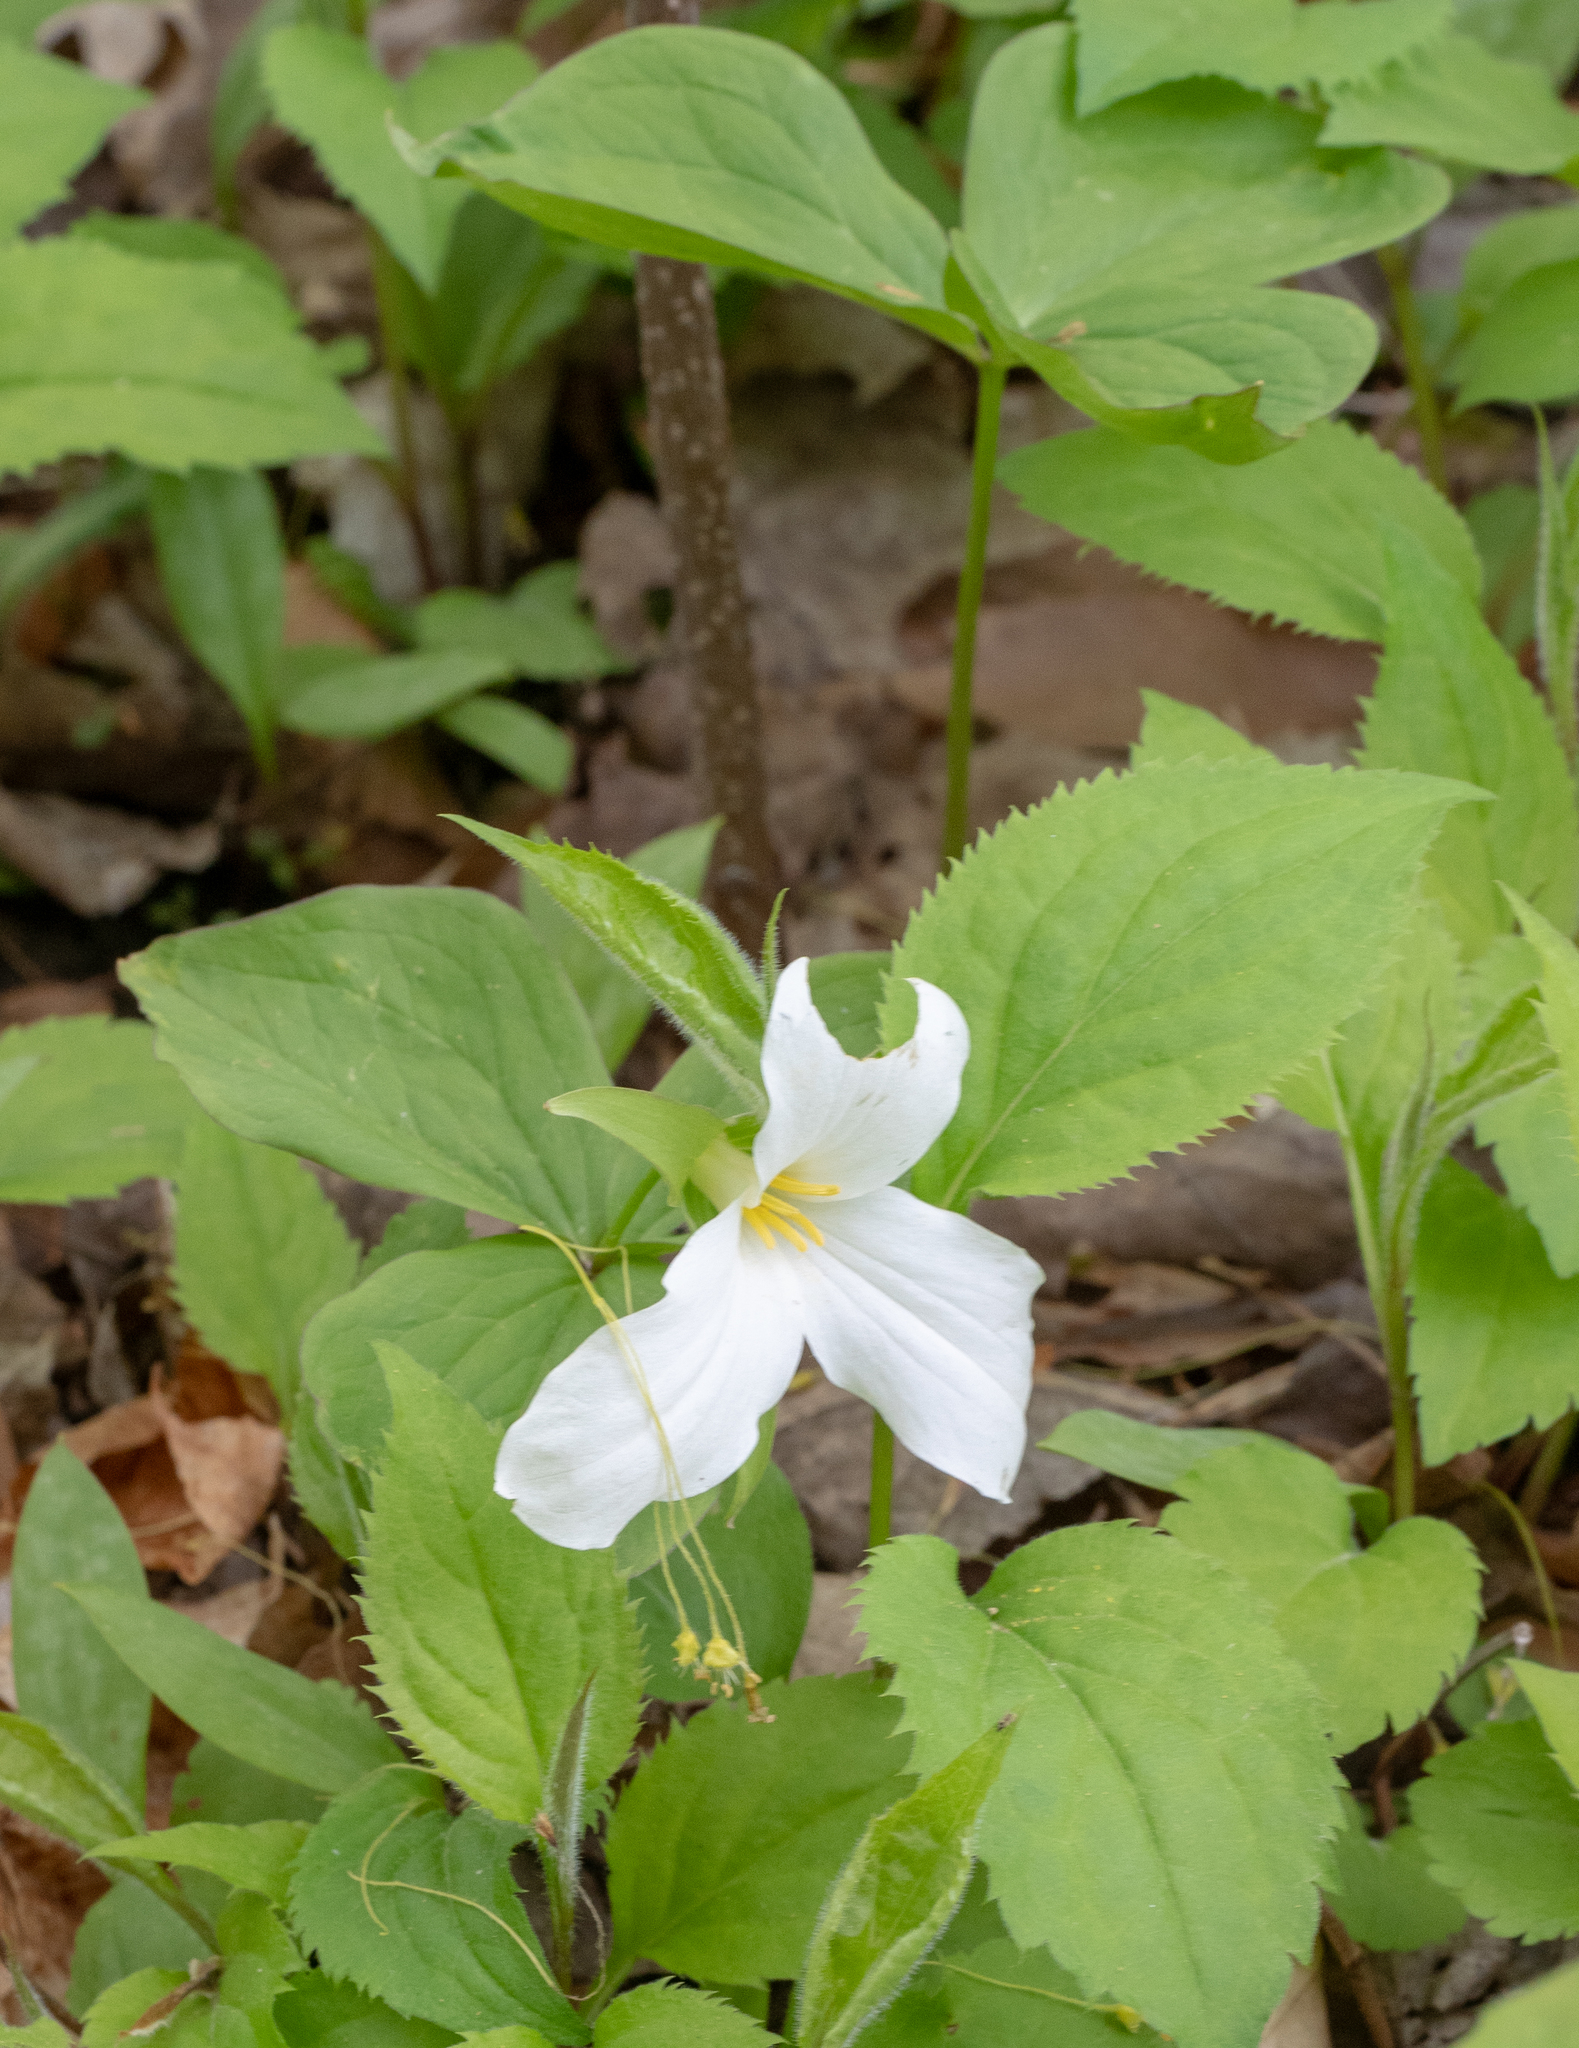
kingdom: Plantae
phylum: Tracheophyta
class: Liliopsida
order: Liliales
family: Melanthiaceae
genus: Trillium
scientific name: Trillium grandiflorum
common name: Great white trillium
